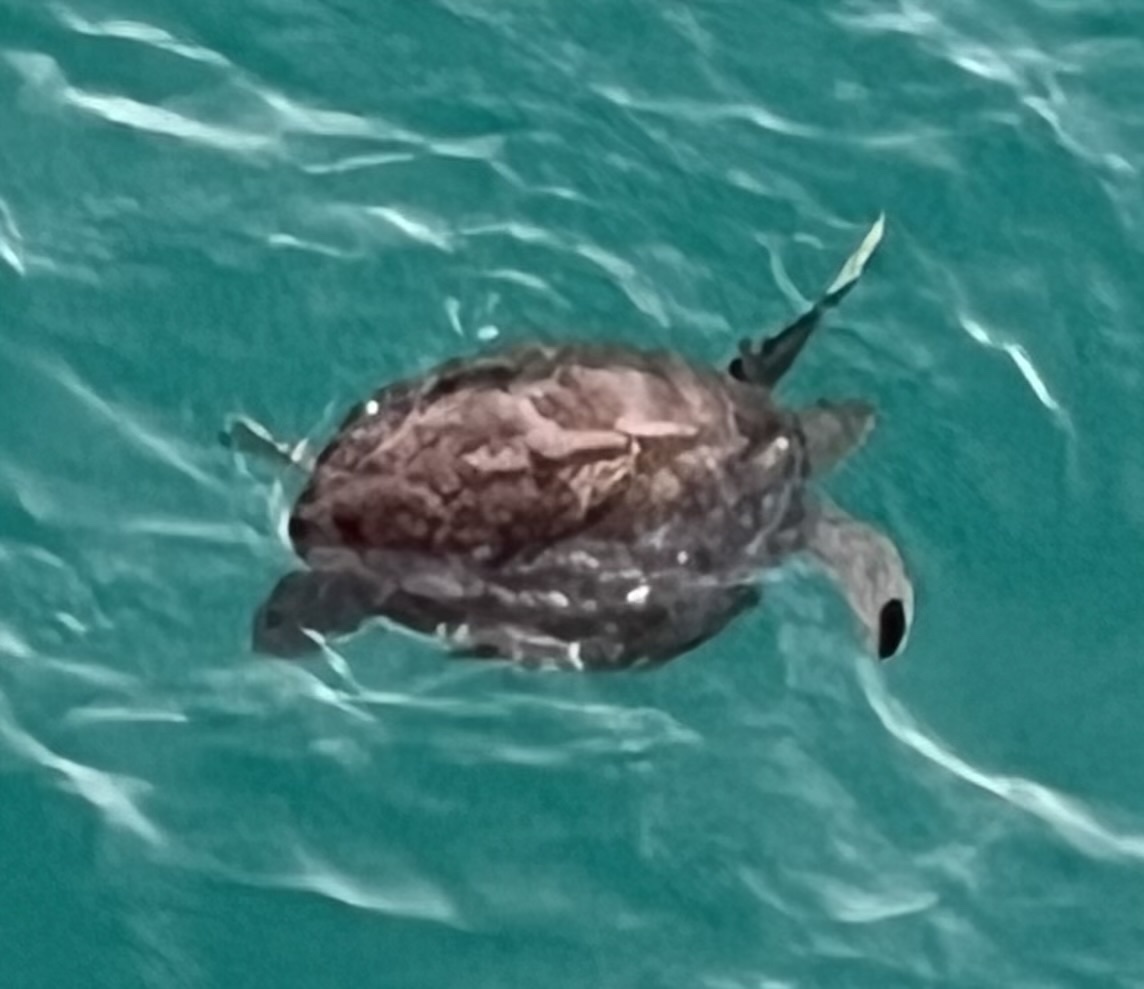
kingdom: Animalia
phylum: Chordata
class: Testudines
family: Cheloniidae
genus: Chelonia
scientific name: Chelonia mydas
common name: Green turtle
